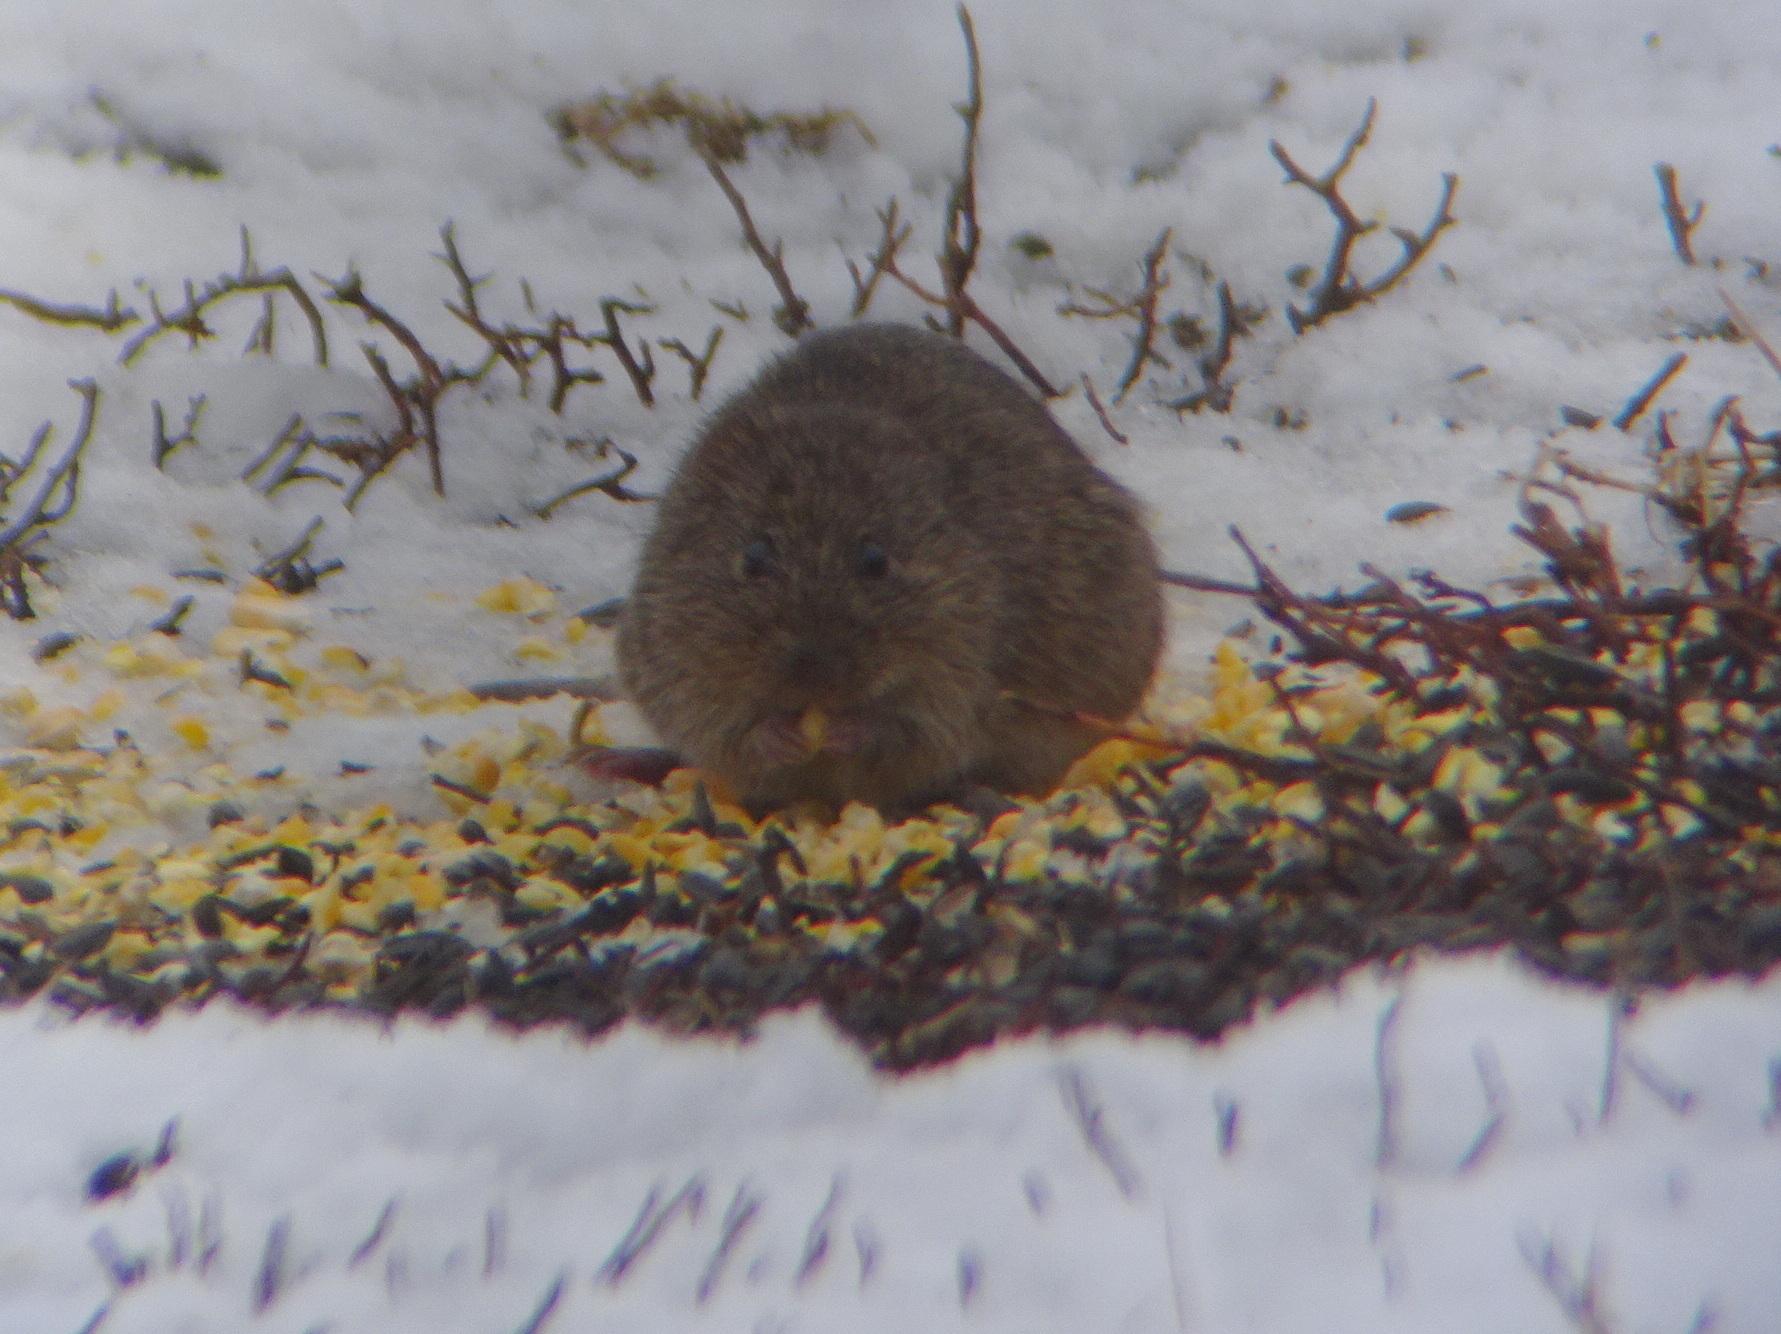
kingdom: Animalia
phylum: Chordata
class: Mammalia
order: Rodentia
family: Cricetidae
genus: Sigmodon
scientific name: Sigmodon hispidus
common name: Hispid cotton rat
